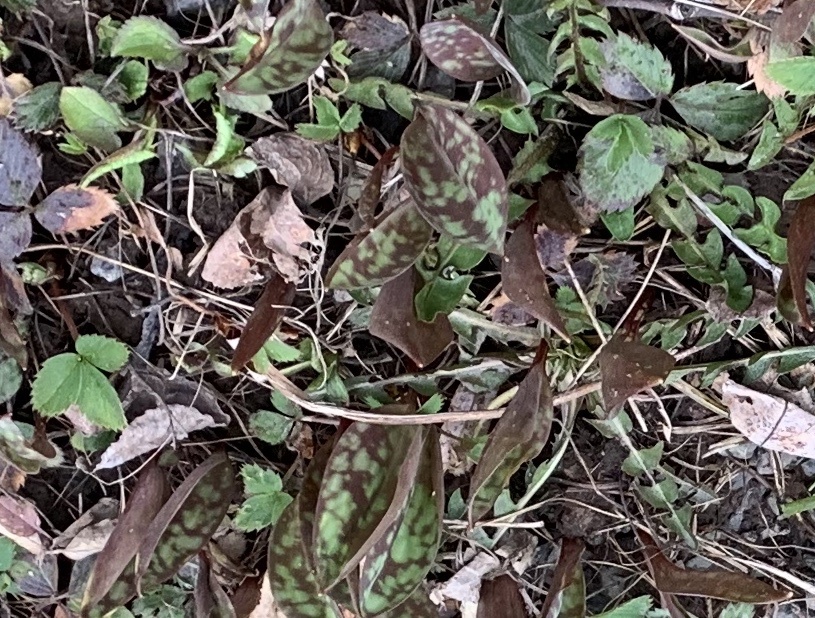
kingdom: Plantae
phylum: Tracheophyta
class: Liliopsida
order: Liliales
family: Liliaceae
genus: Erythronium
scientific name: Erythronium americanum
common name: Yellow adder's-tongue
